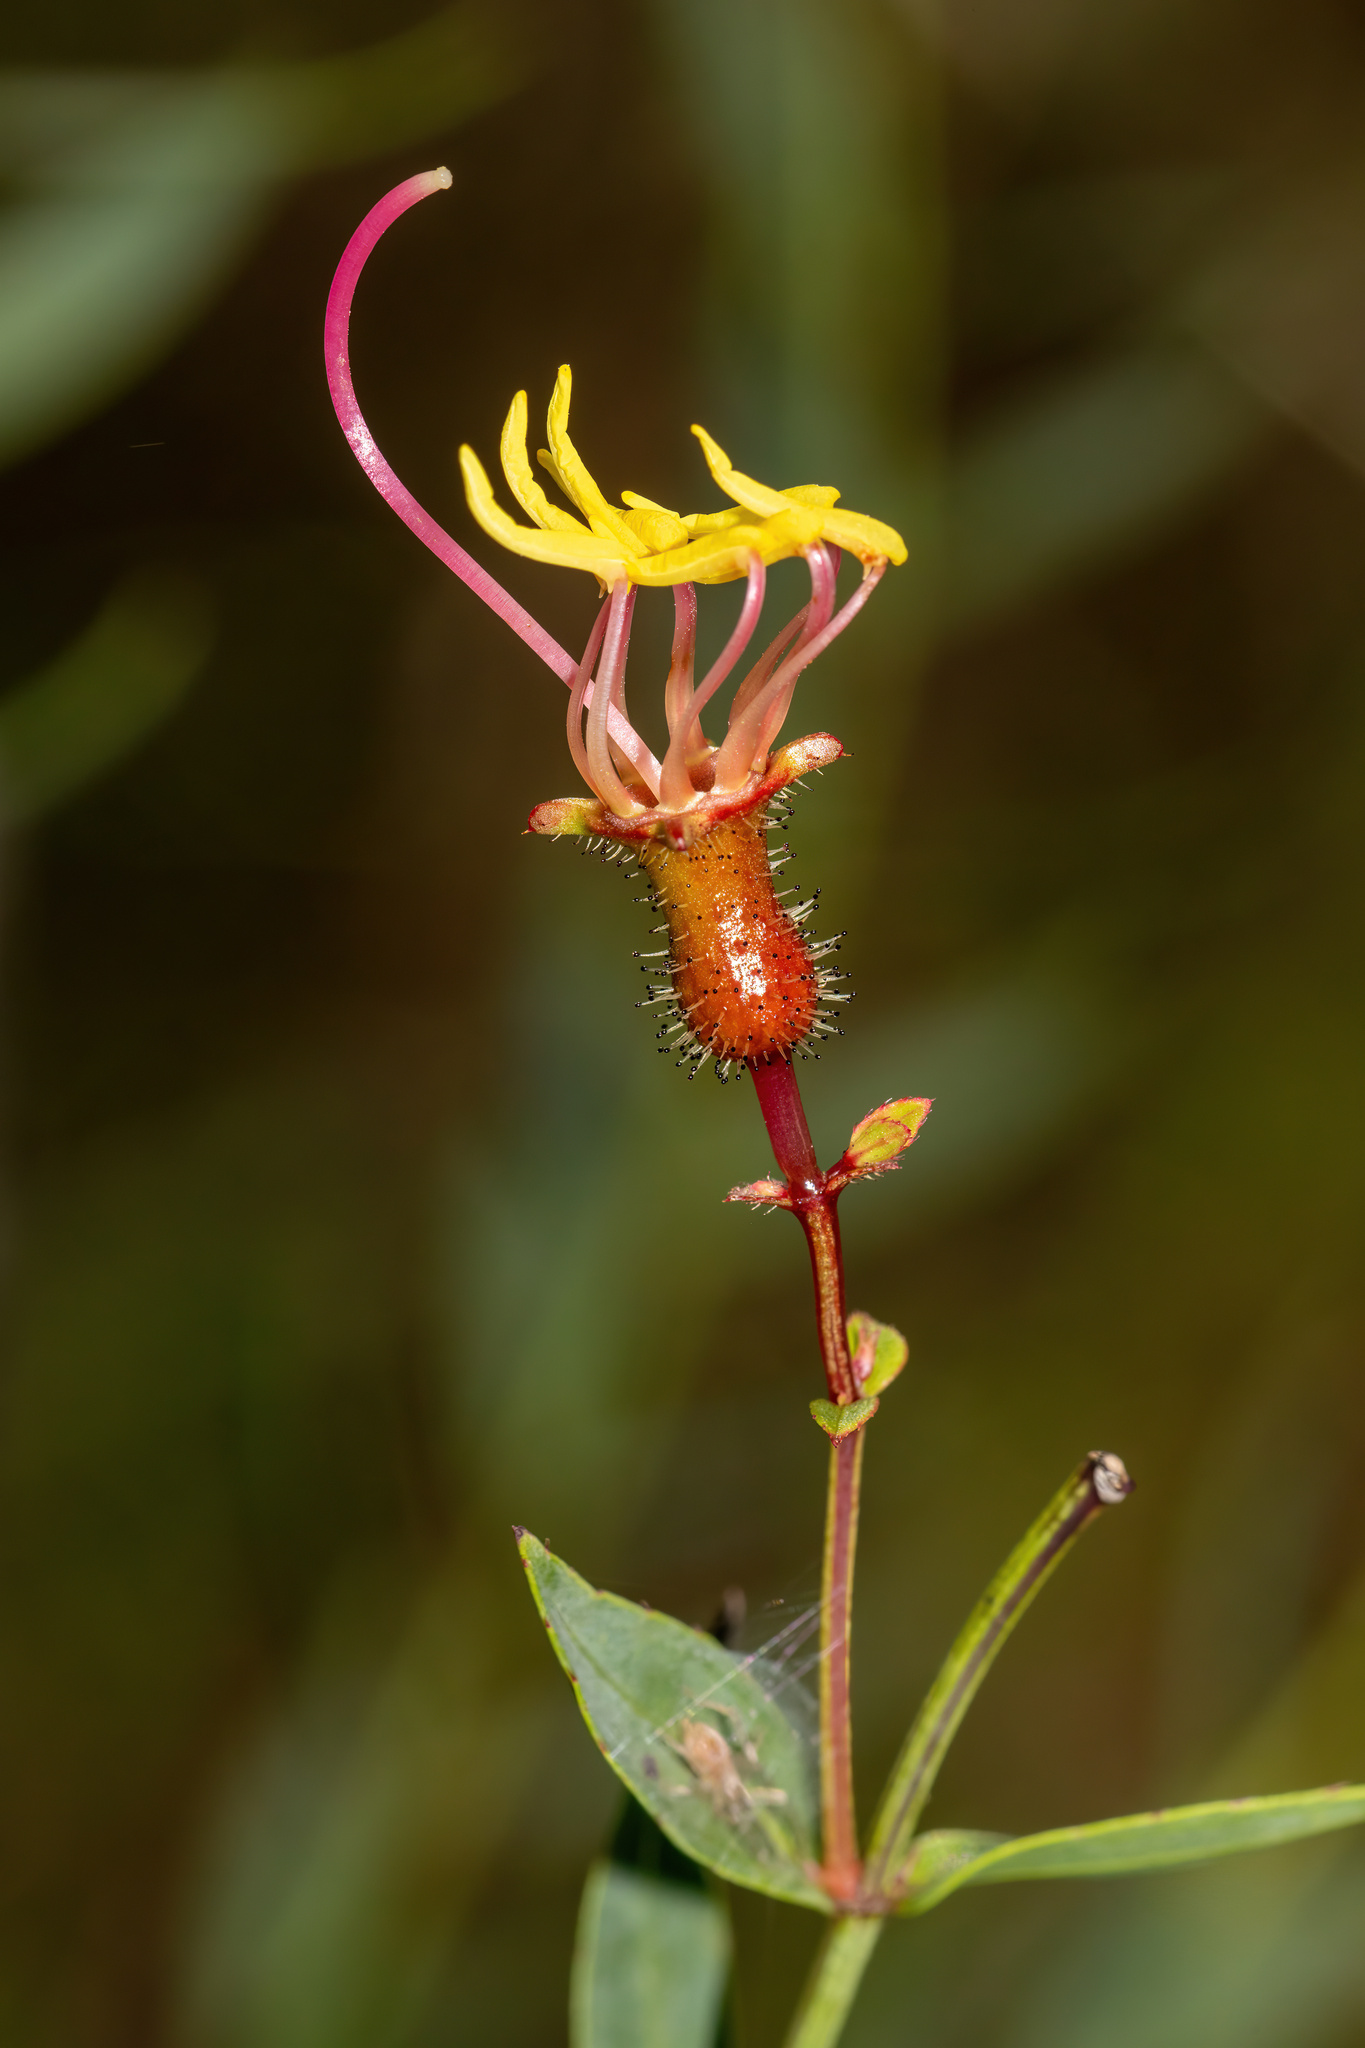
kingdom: Plantae
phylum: Tracheophyta
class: Magnoliopsida
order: Myrtales
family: Melastomataceae
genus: Rhexia
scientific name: Rhexia alifanus
